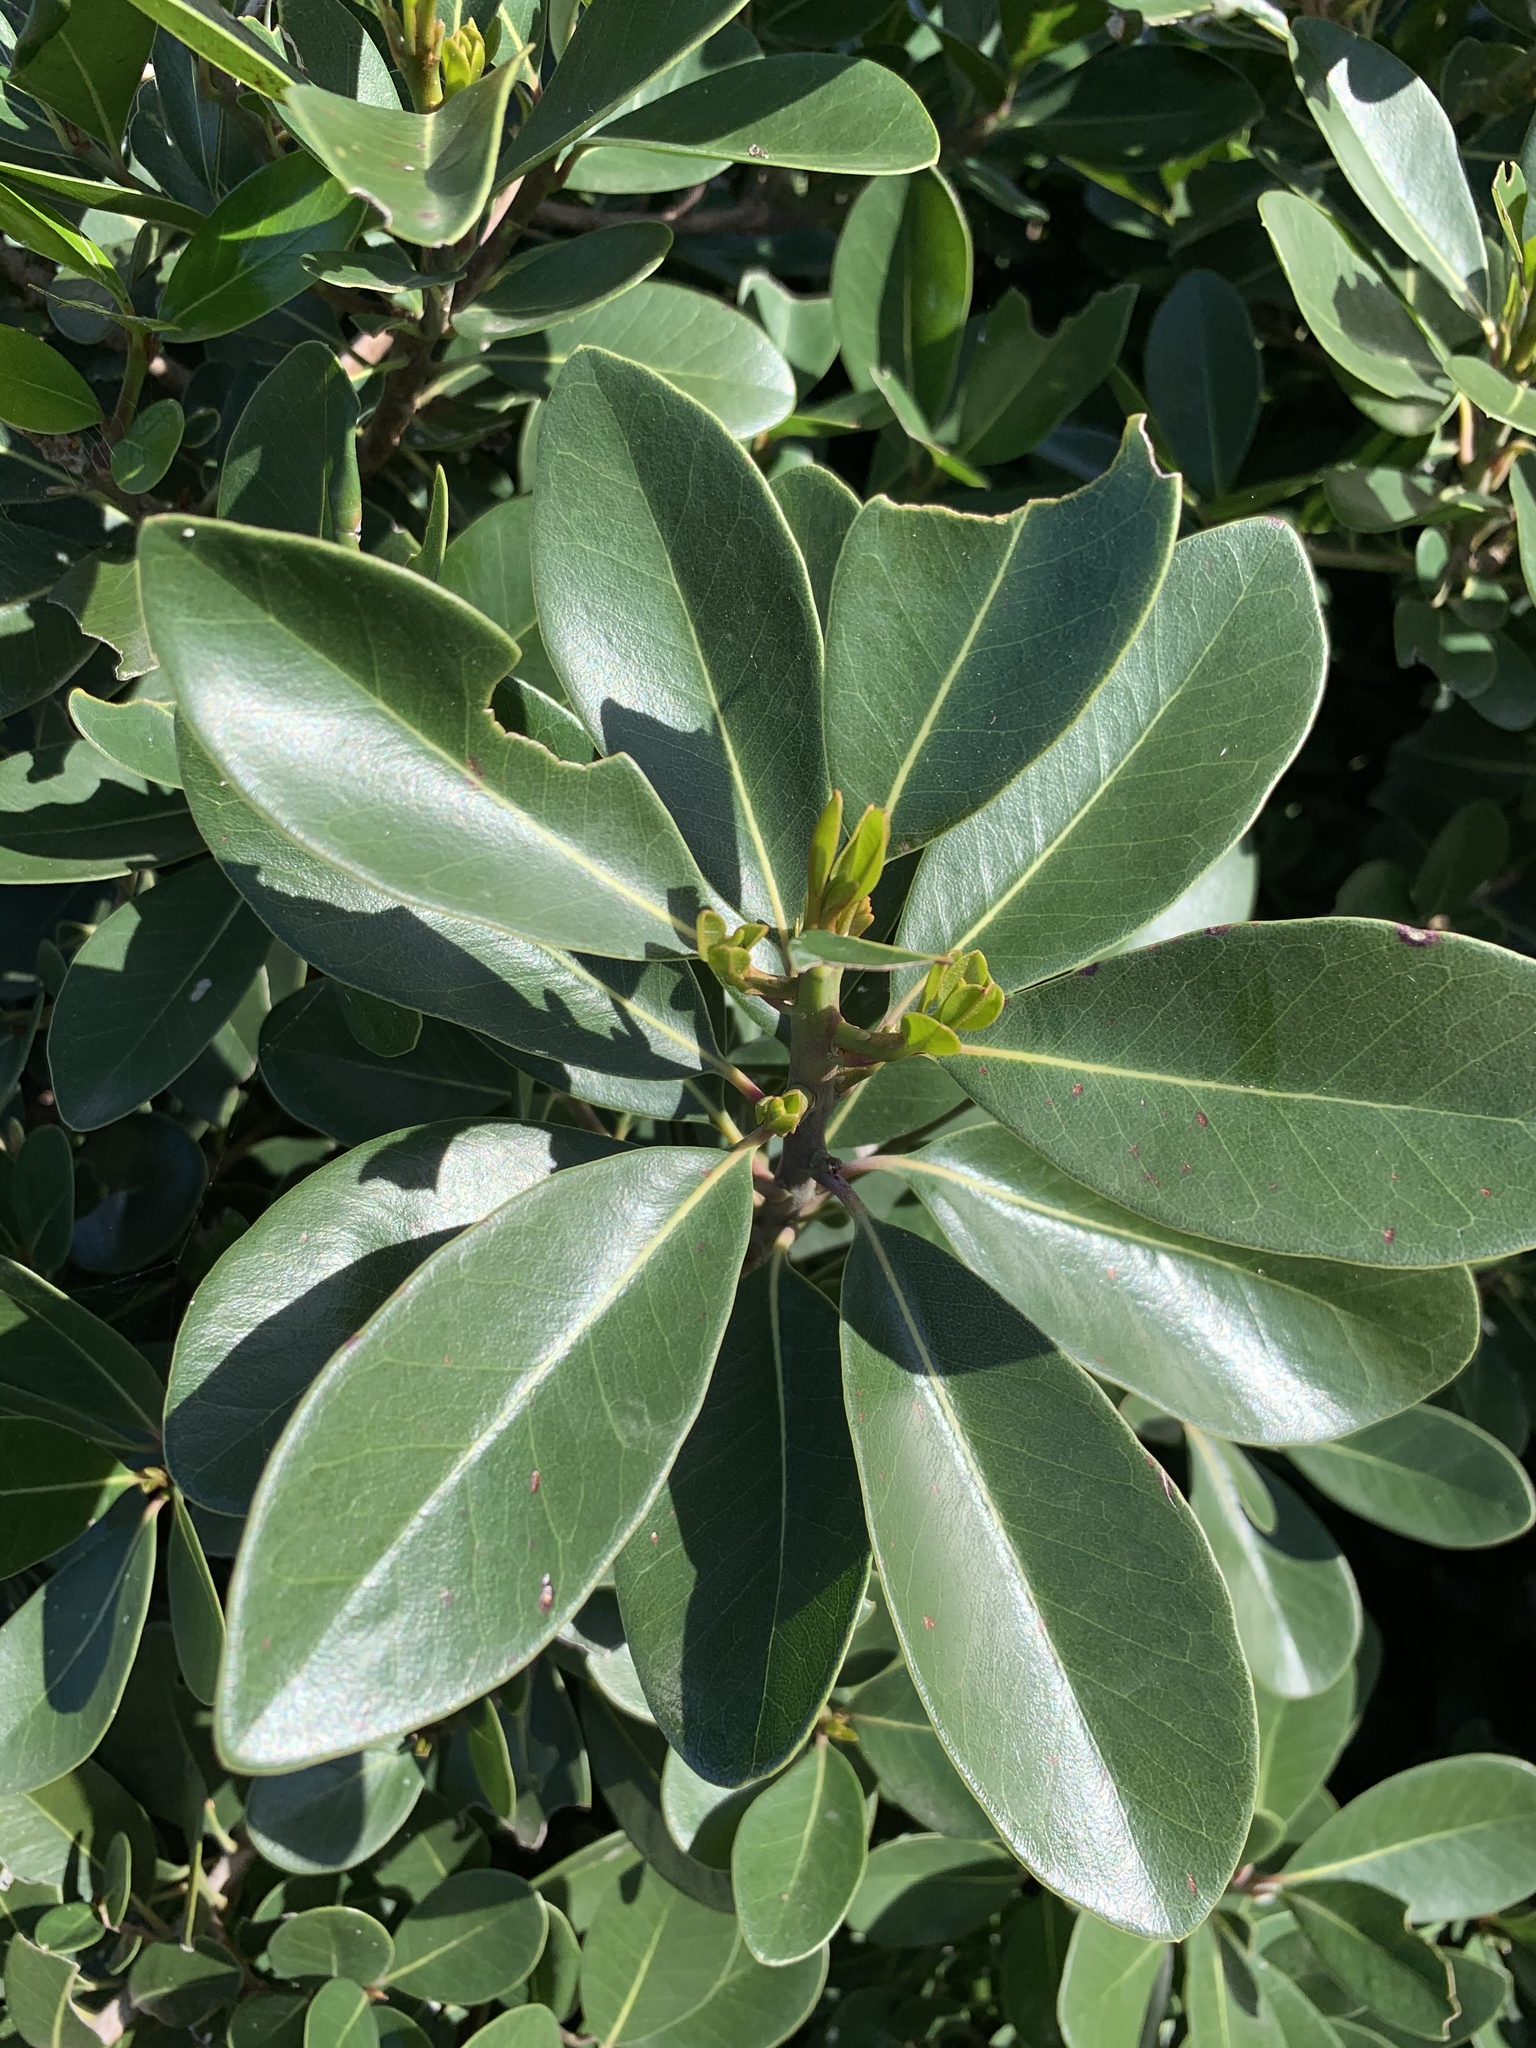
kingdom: Plantae
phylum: Tracheophyta
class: Magnoliopsida
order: Ericales
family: Sapotaceae
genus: Sideroxylon
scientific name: Sideroxylon inerme
